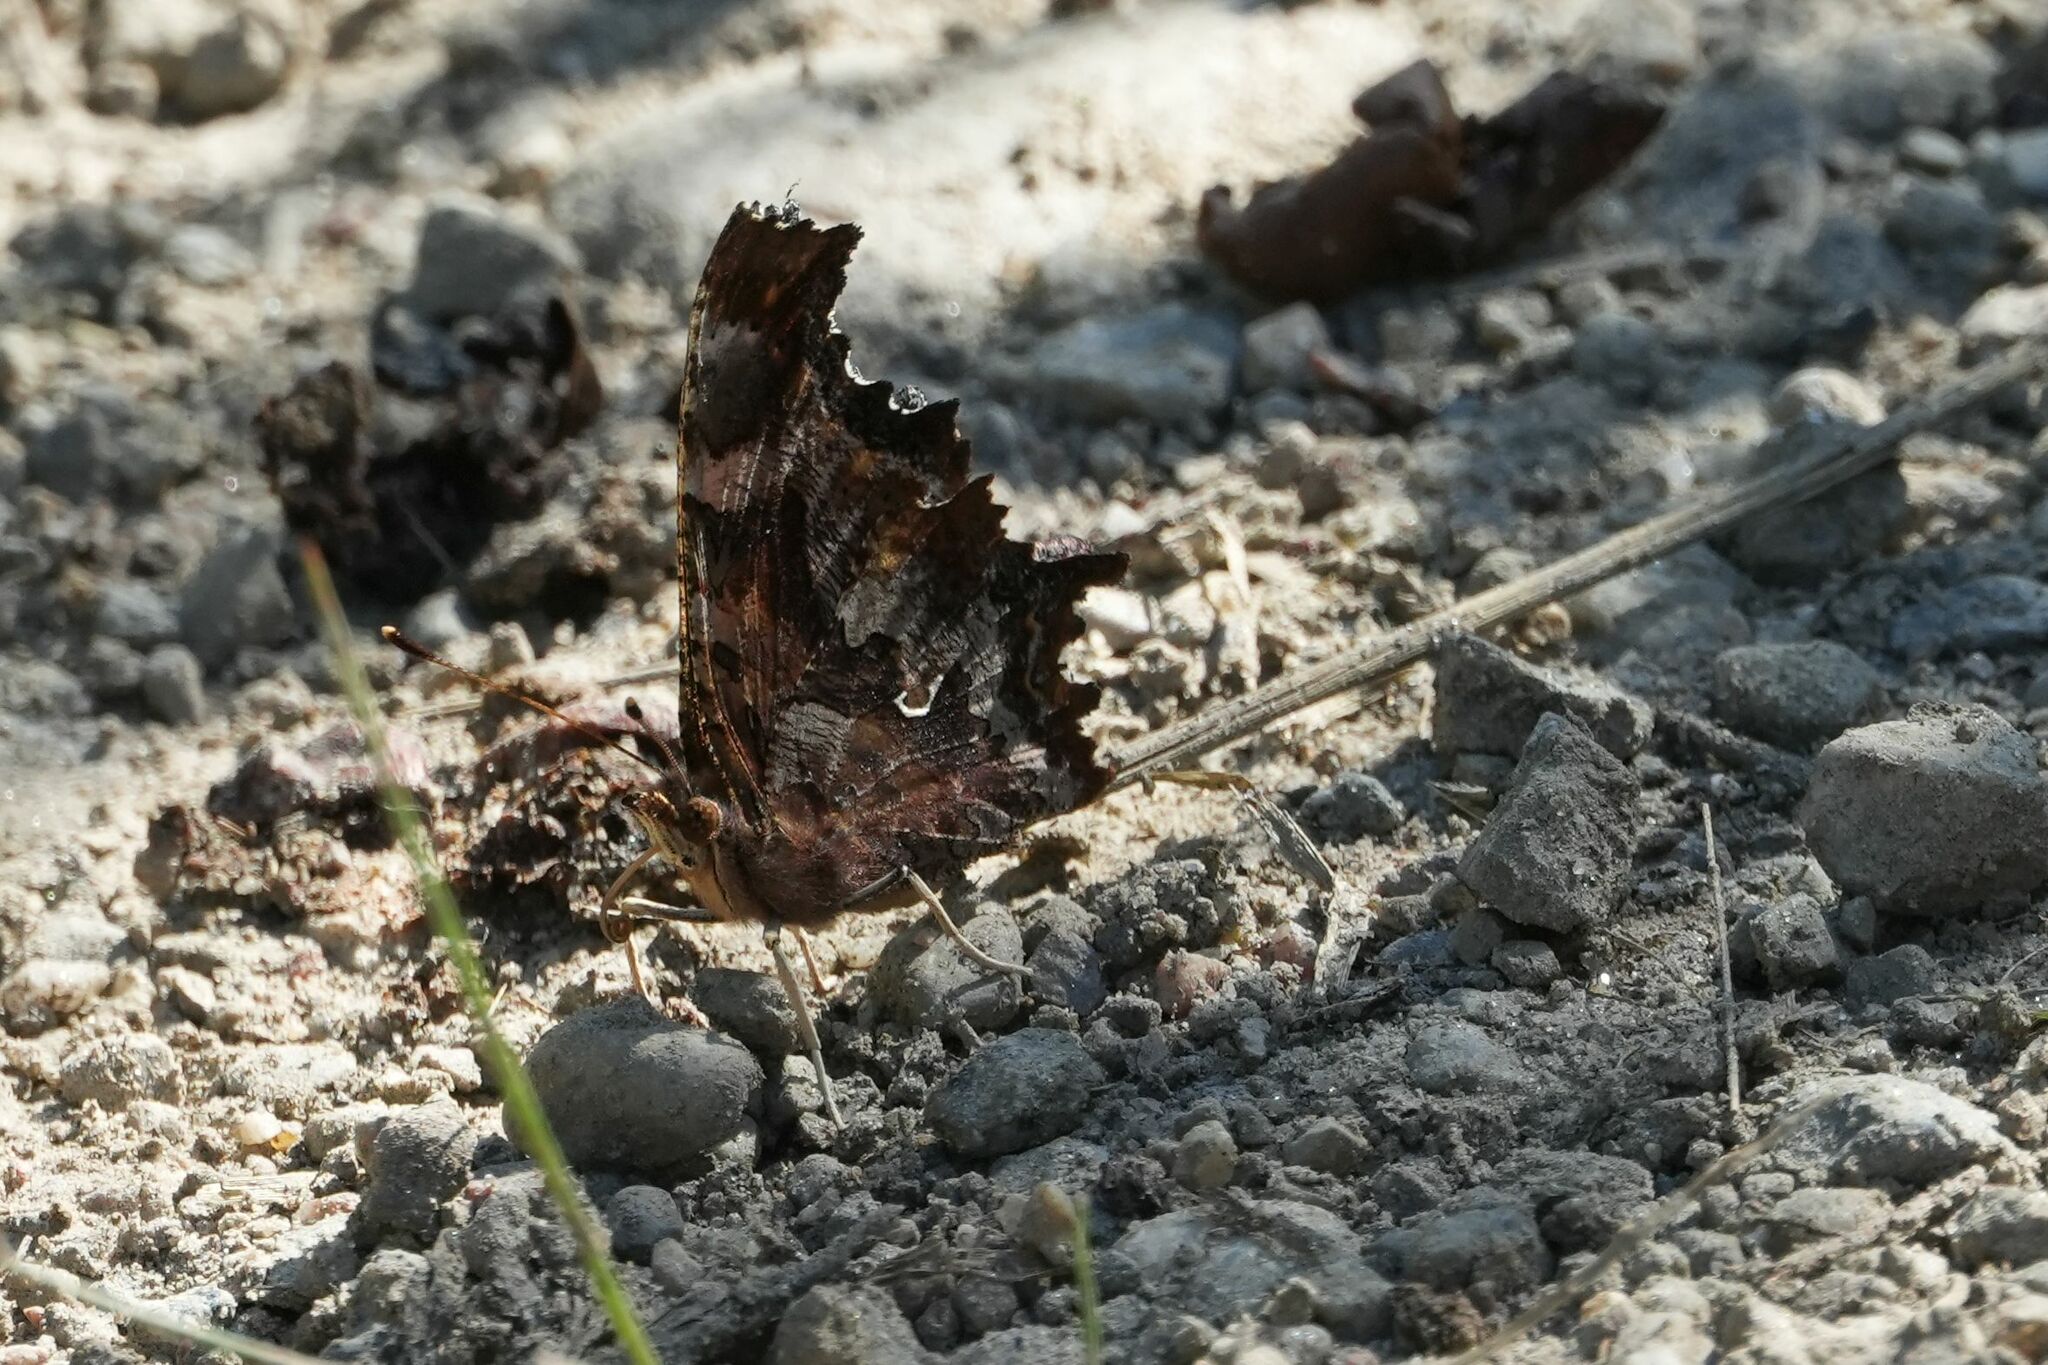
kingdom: Animalia
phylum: Arthropoda
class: Insecta
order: Lepidoptera
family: Nymphalidae
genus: Polygonia
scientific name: Polygonia comma
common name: Eastern comma
